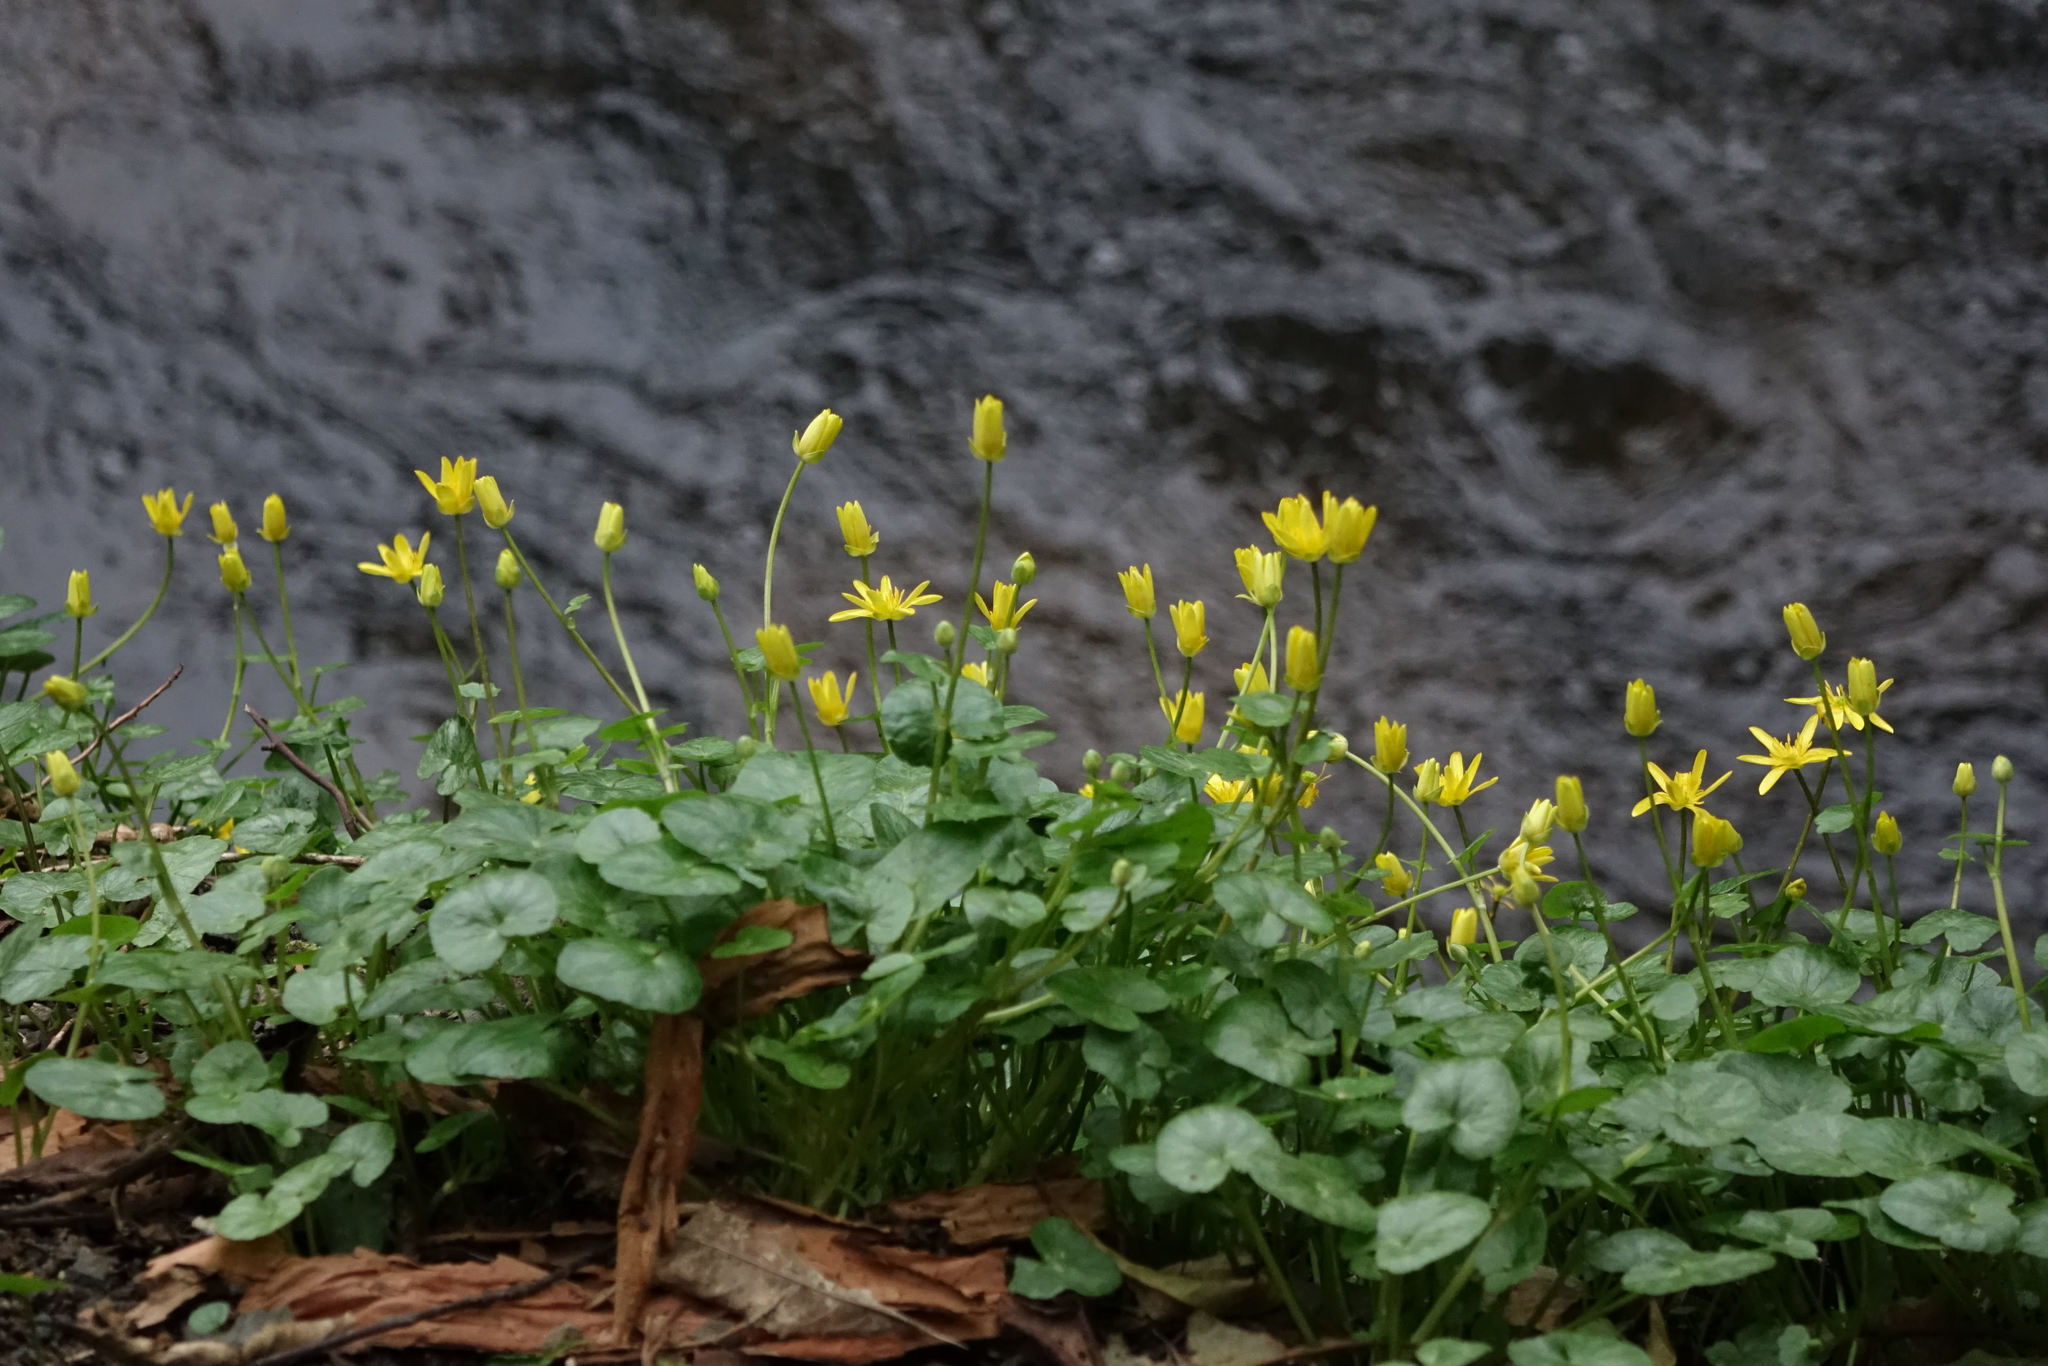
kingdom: Plantae
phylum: Tracheophyta
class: Magnoliopsida
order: Ranunculales
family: Ranunculaceae
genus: Ficaria
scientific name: Ficaria grandiflora
